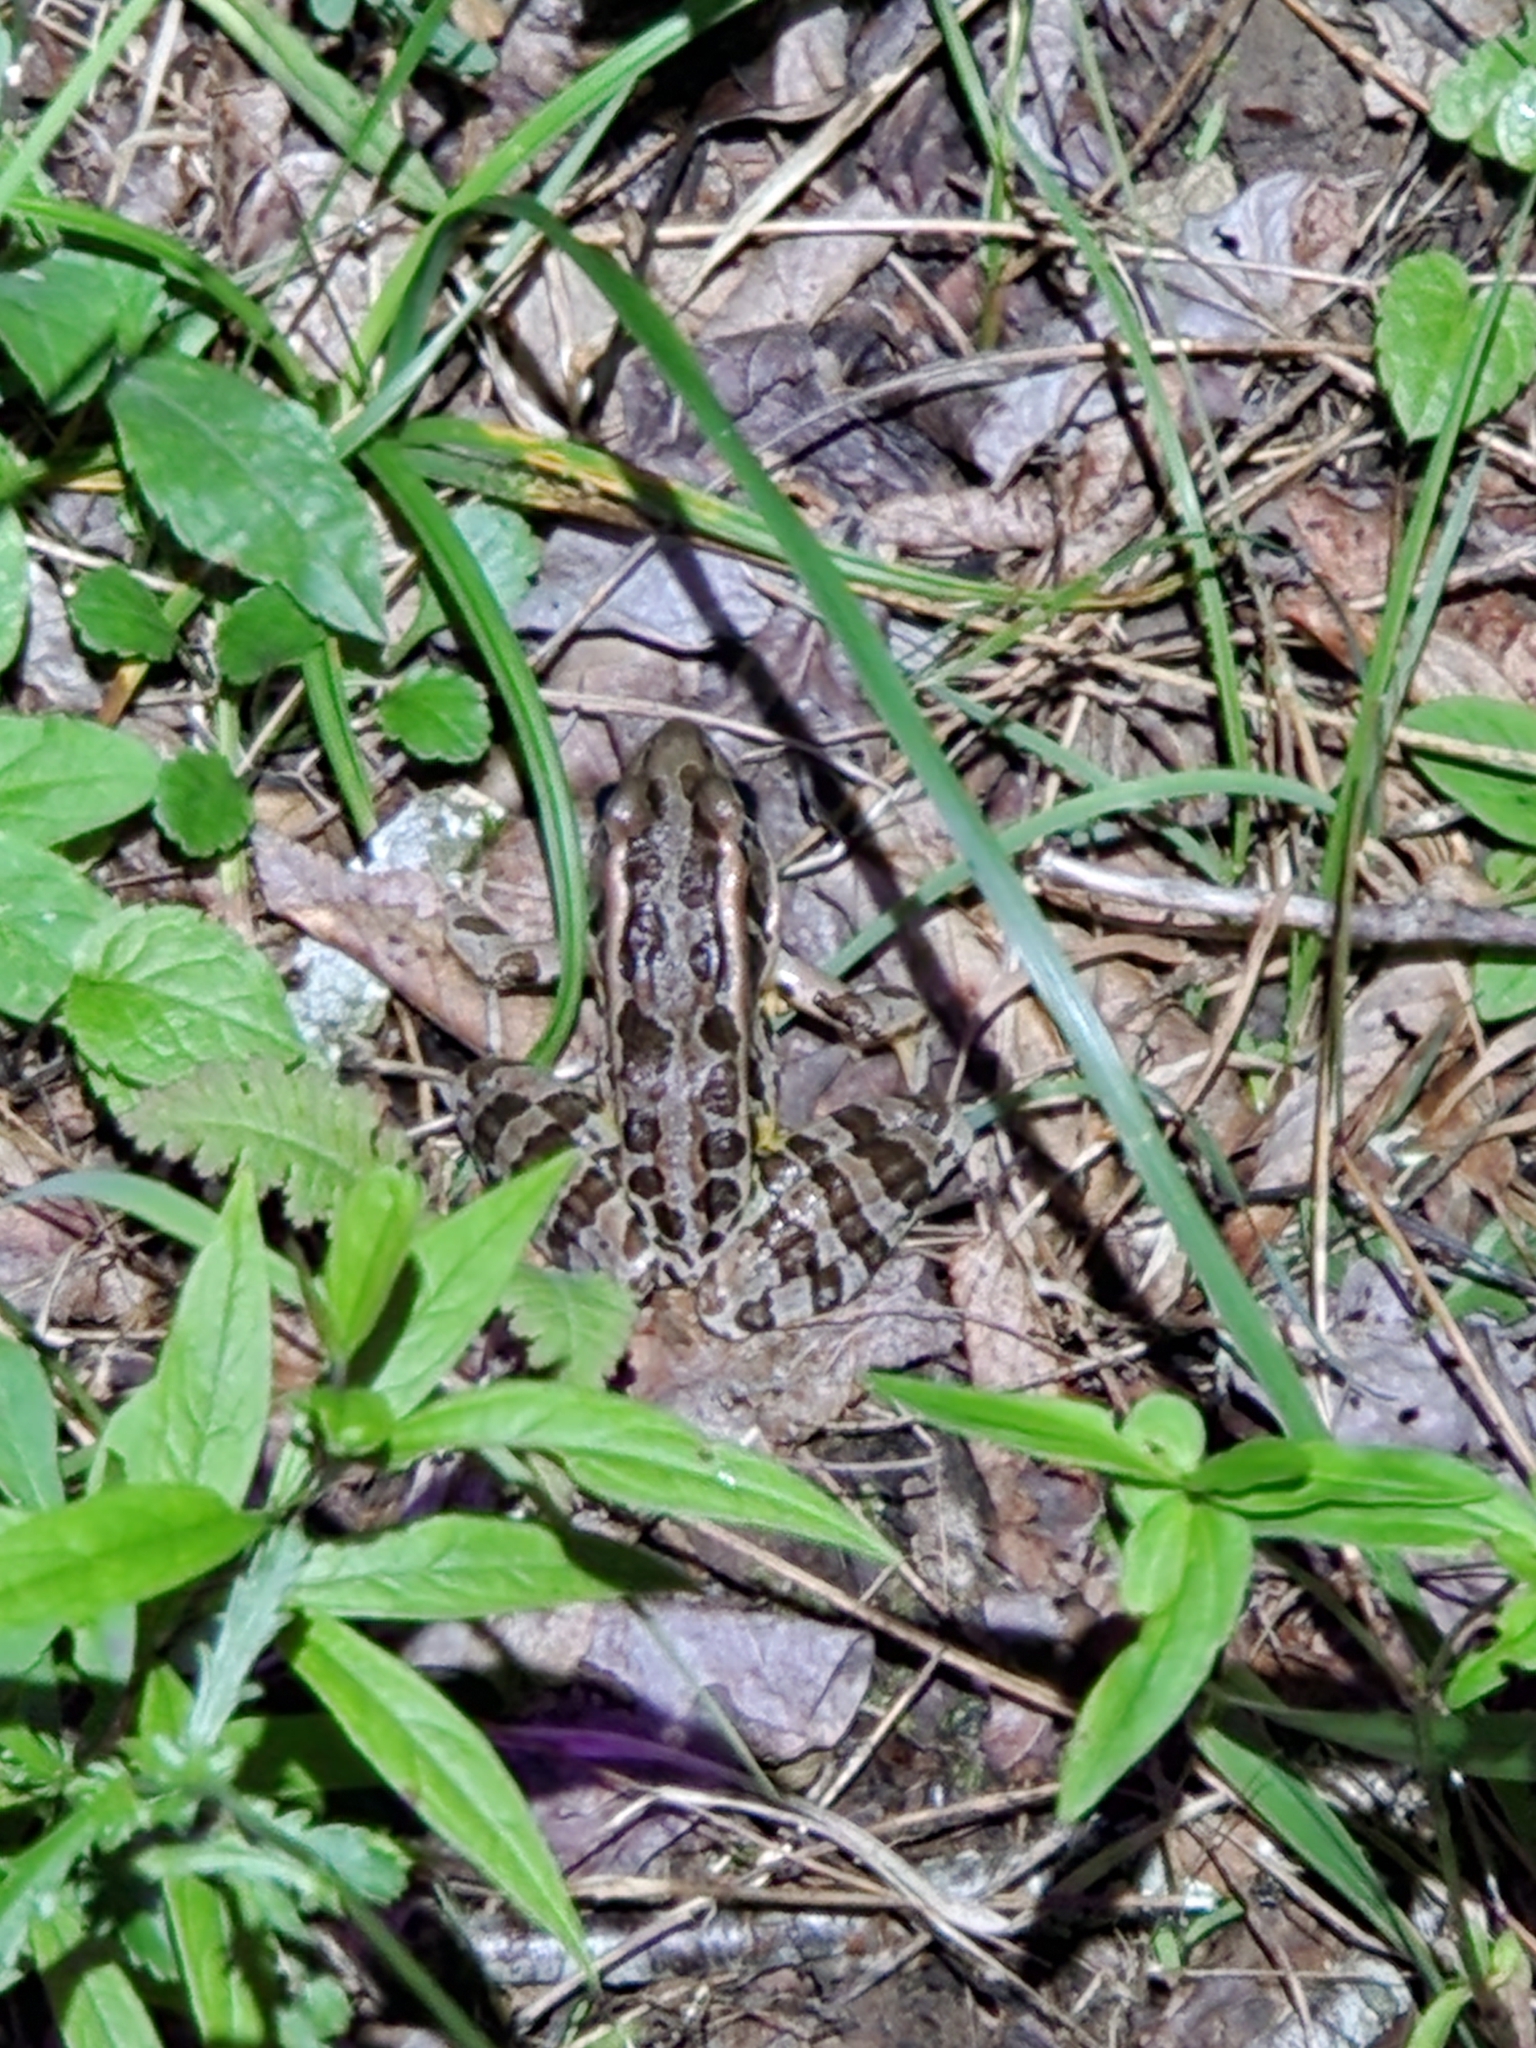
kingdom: Animalia
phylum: Chordata
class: Amphibia
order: Anura
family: Ranidae
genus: Lithobates
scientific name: Lithobates palustris
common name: Pickerel frog
